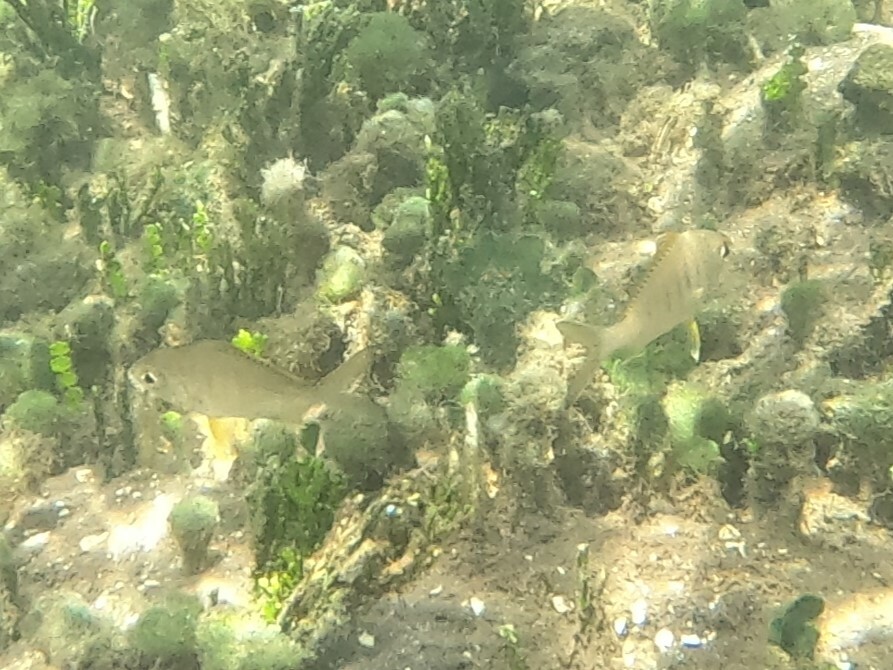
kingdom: Animalia
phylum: Chordata
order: Perciformes
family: Gerreidae
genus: Gerres
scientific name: Gerres cinereus
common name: Hedow
